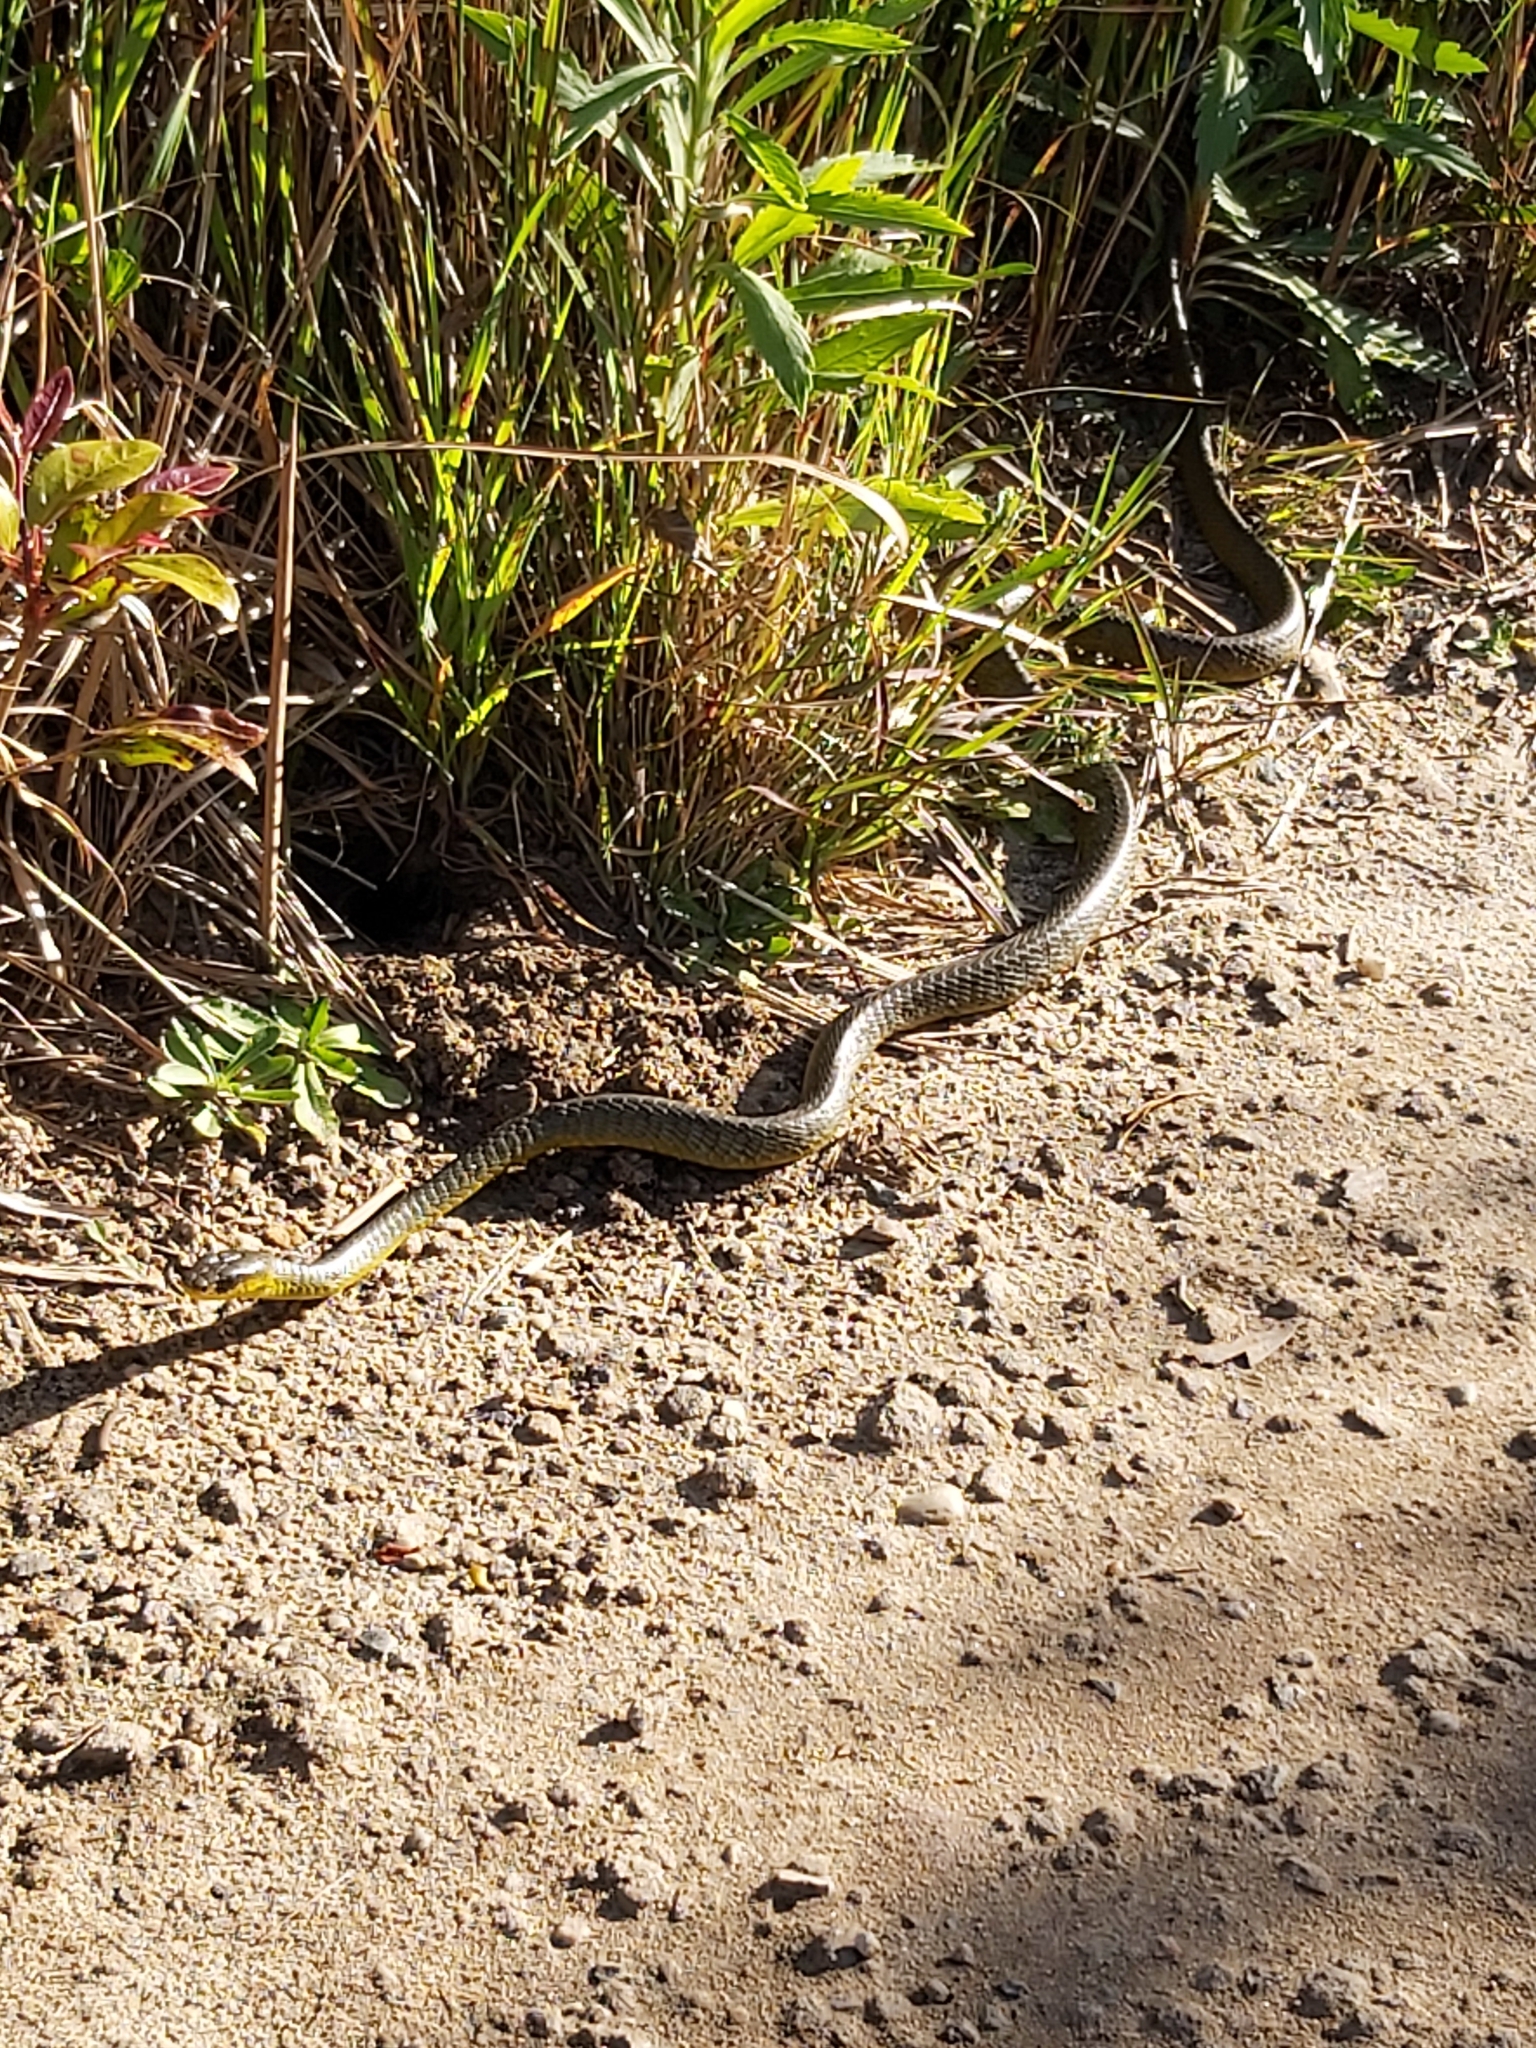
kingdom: Animalia
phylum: Chordata
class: Squamata
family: Colubridae
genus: Dendrelaphis
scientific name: Dendrelaphis punctulatus
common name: Common tree snake
